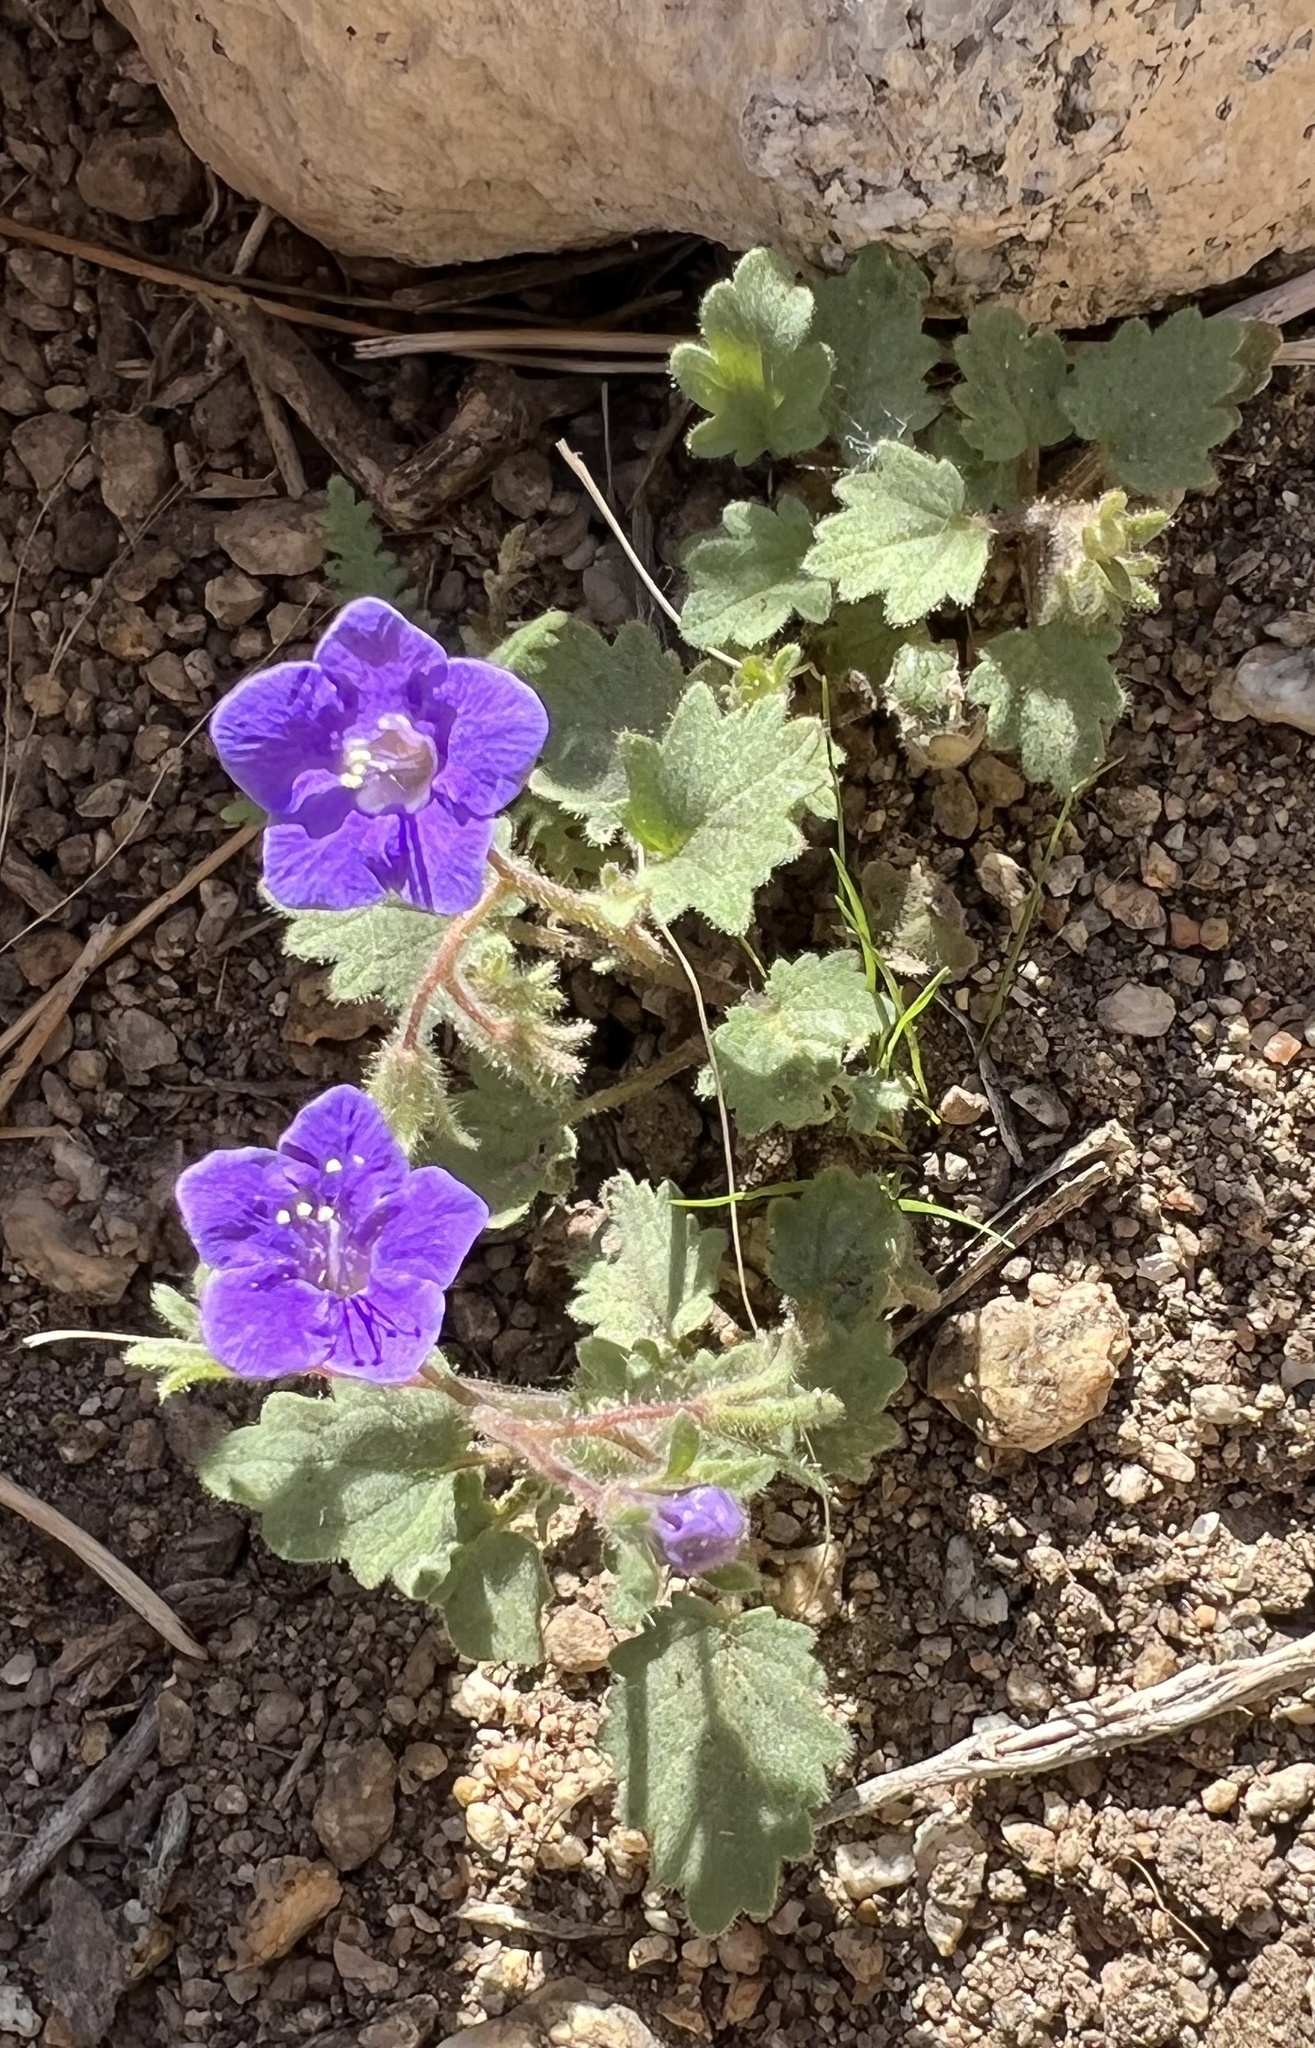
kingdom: Plantae
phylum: Tracheophyta
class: Magnoliopsida
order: Boraginales
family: Hydrophyllaceae
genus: Phacelia
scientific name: Phacelia minor
